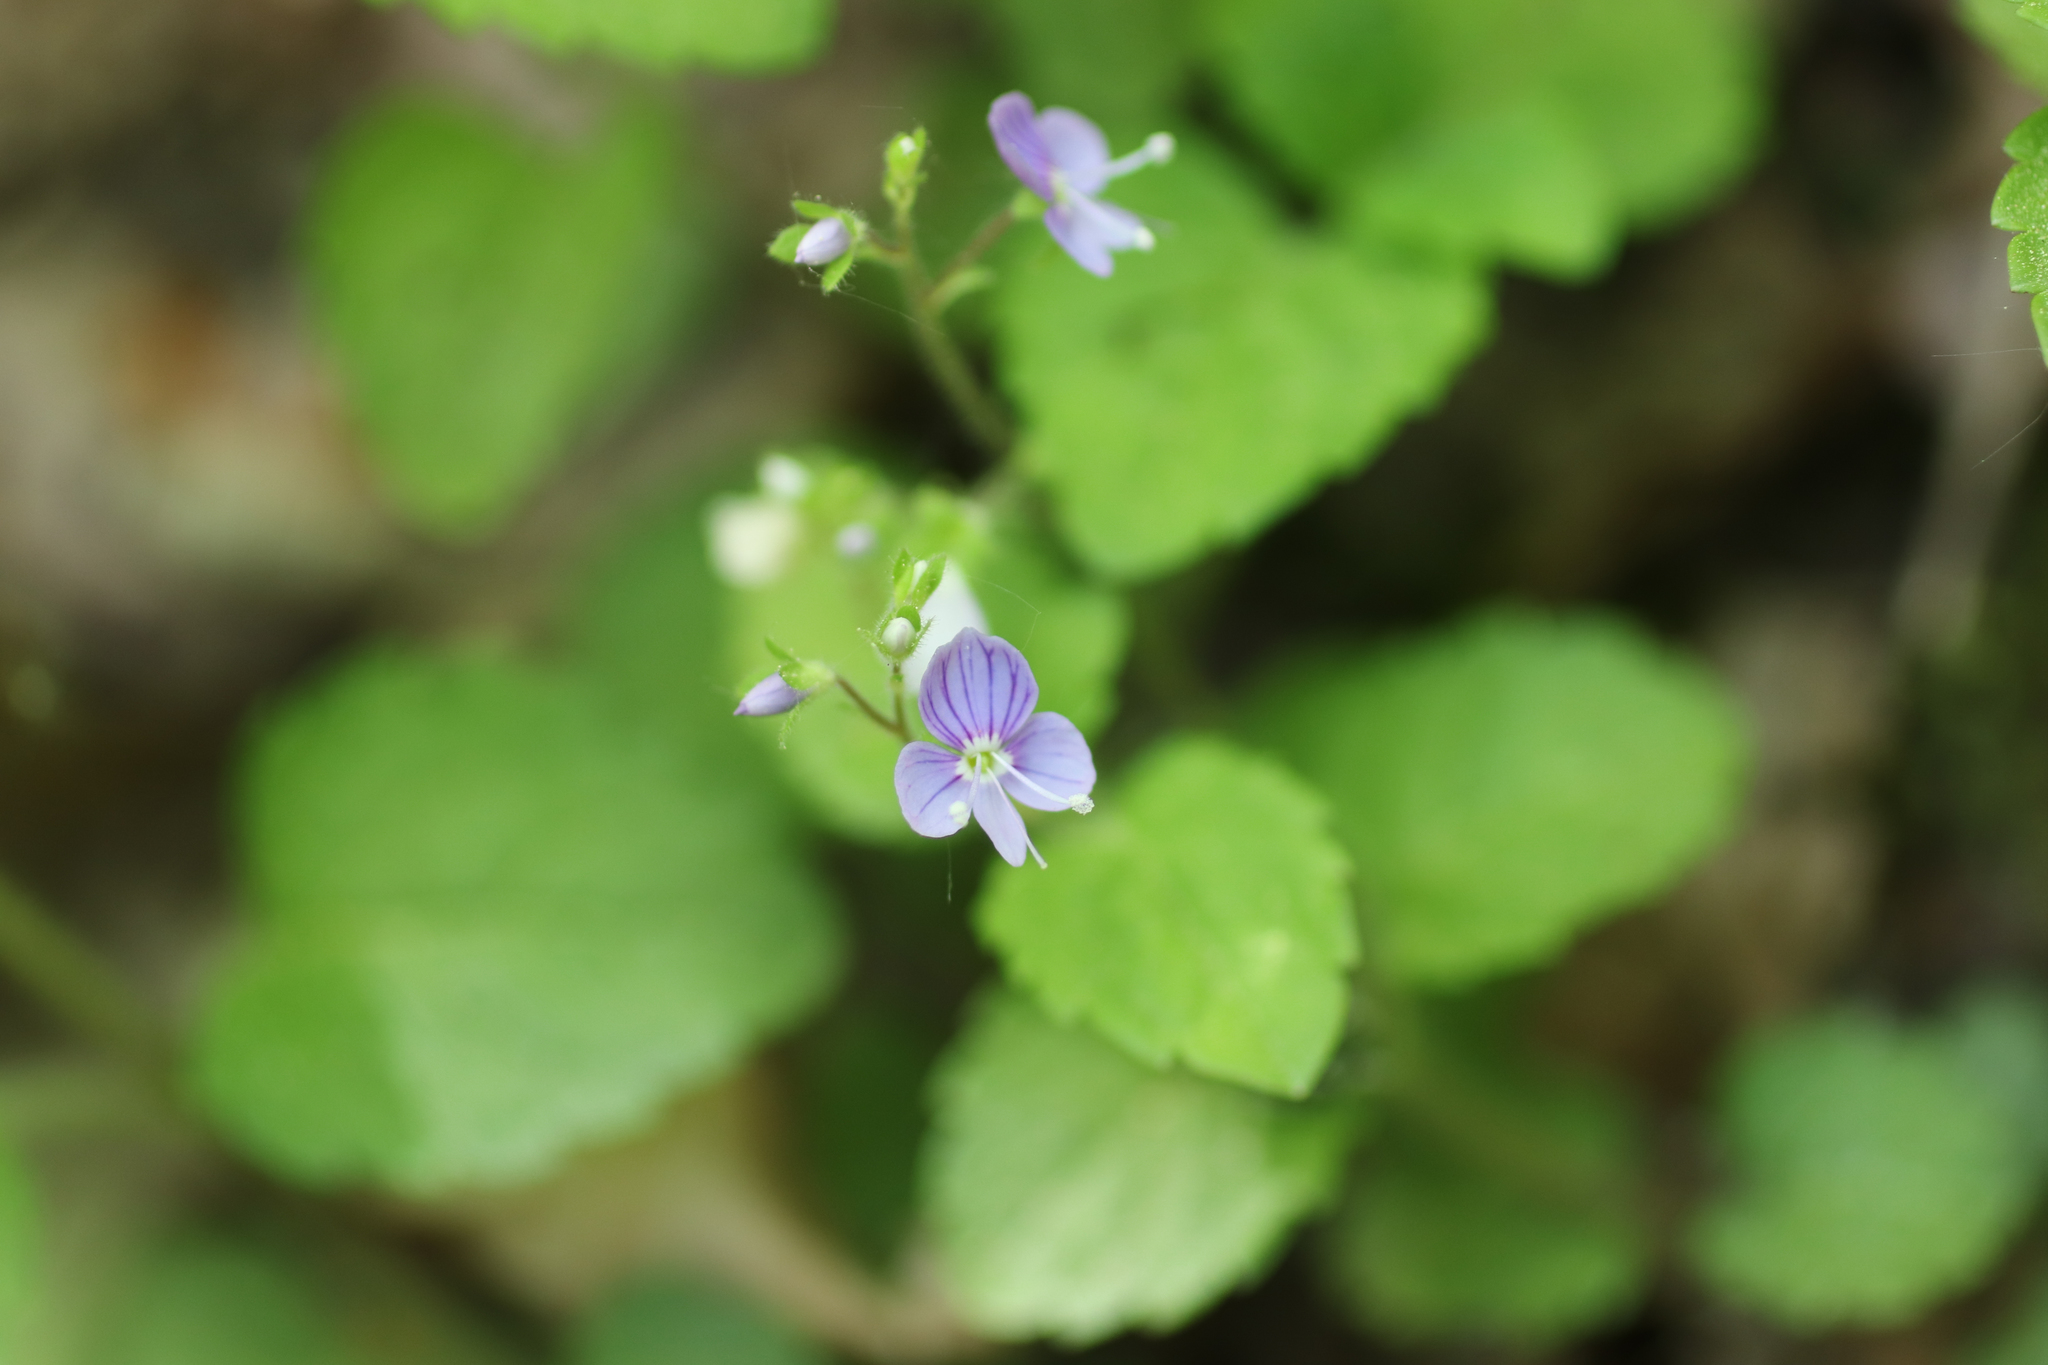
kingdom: Plantae
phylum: Tracheophyta
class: Magnoliopsida
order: Lamiales
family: Plantaginaceae
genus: Veronica
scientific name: Veronica montana
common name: Wood speedwell
